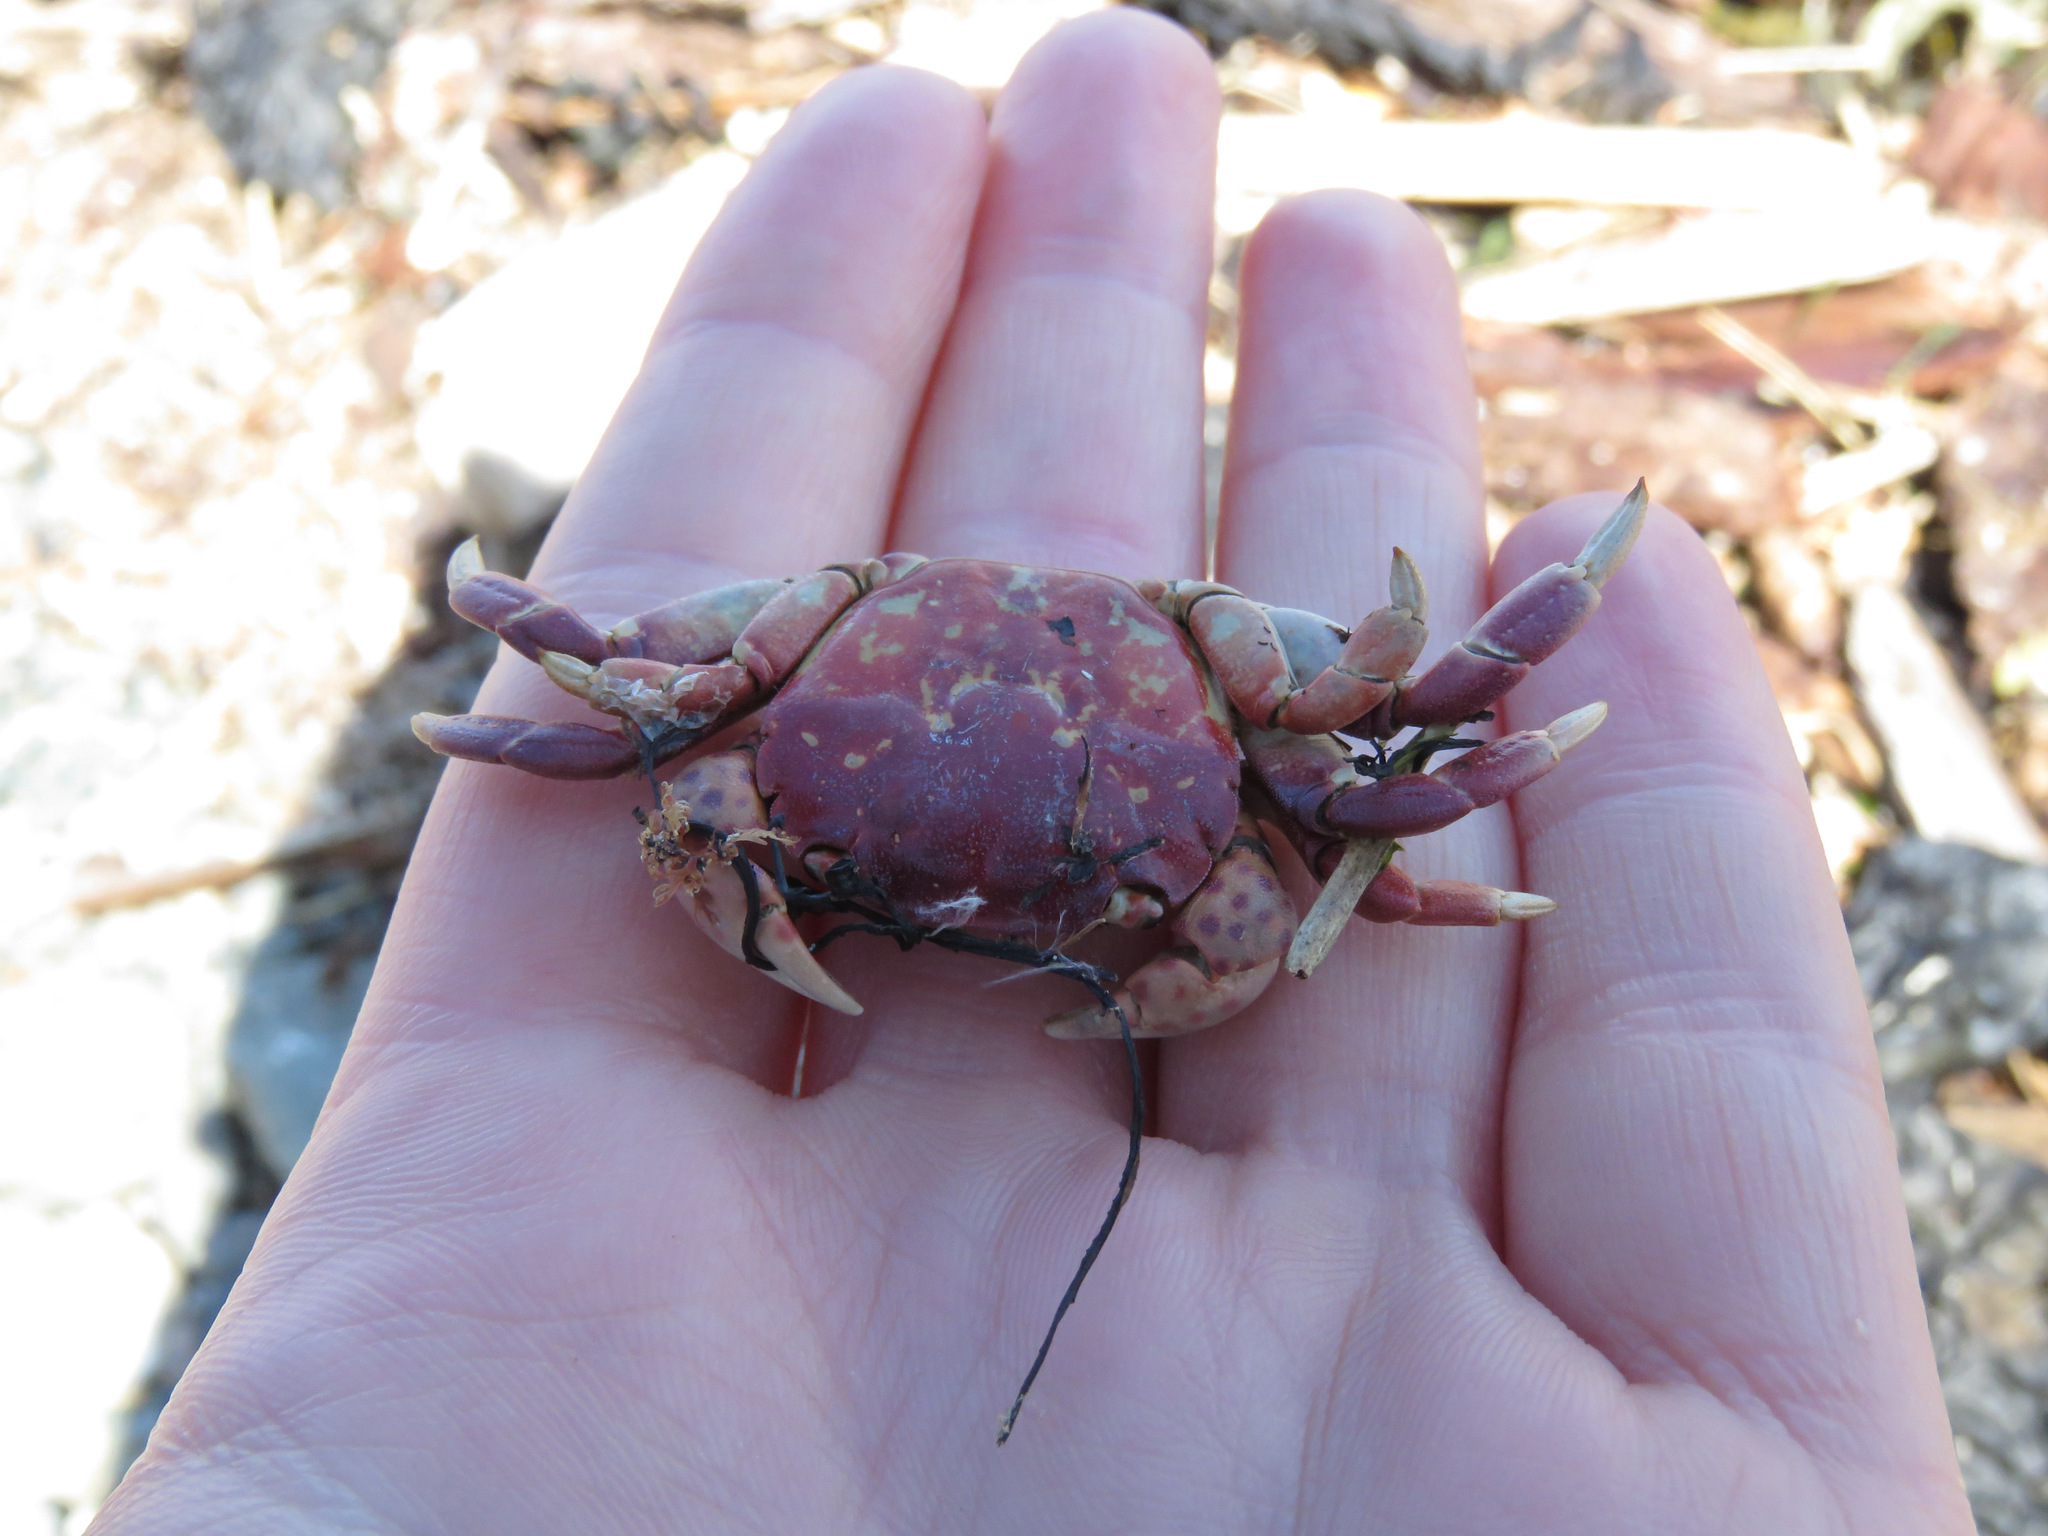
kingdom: Animalia
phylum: Arthropoda
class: Malacostraca
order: Decapoda
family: Varunidae
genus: Hemigrapsus
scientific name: Hemigrapsus nudus
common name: Purple shore crab
